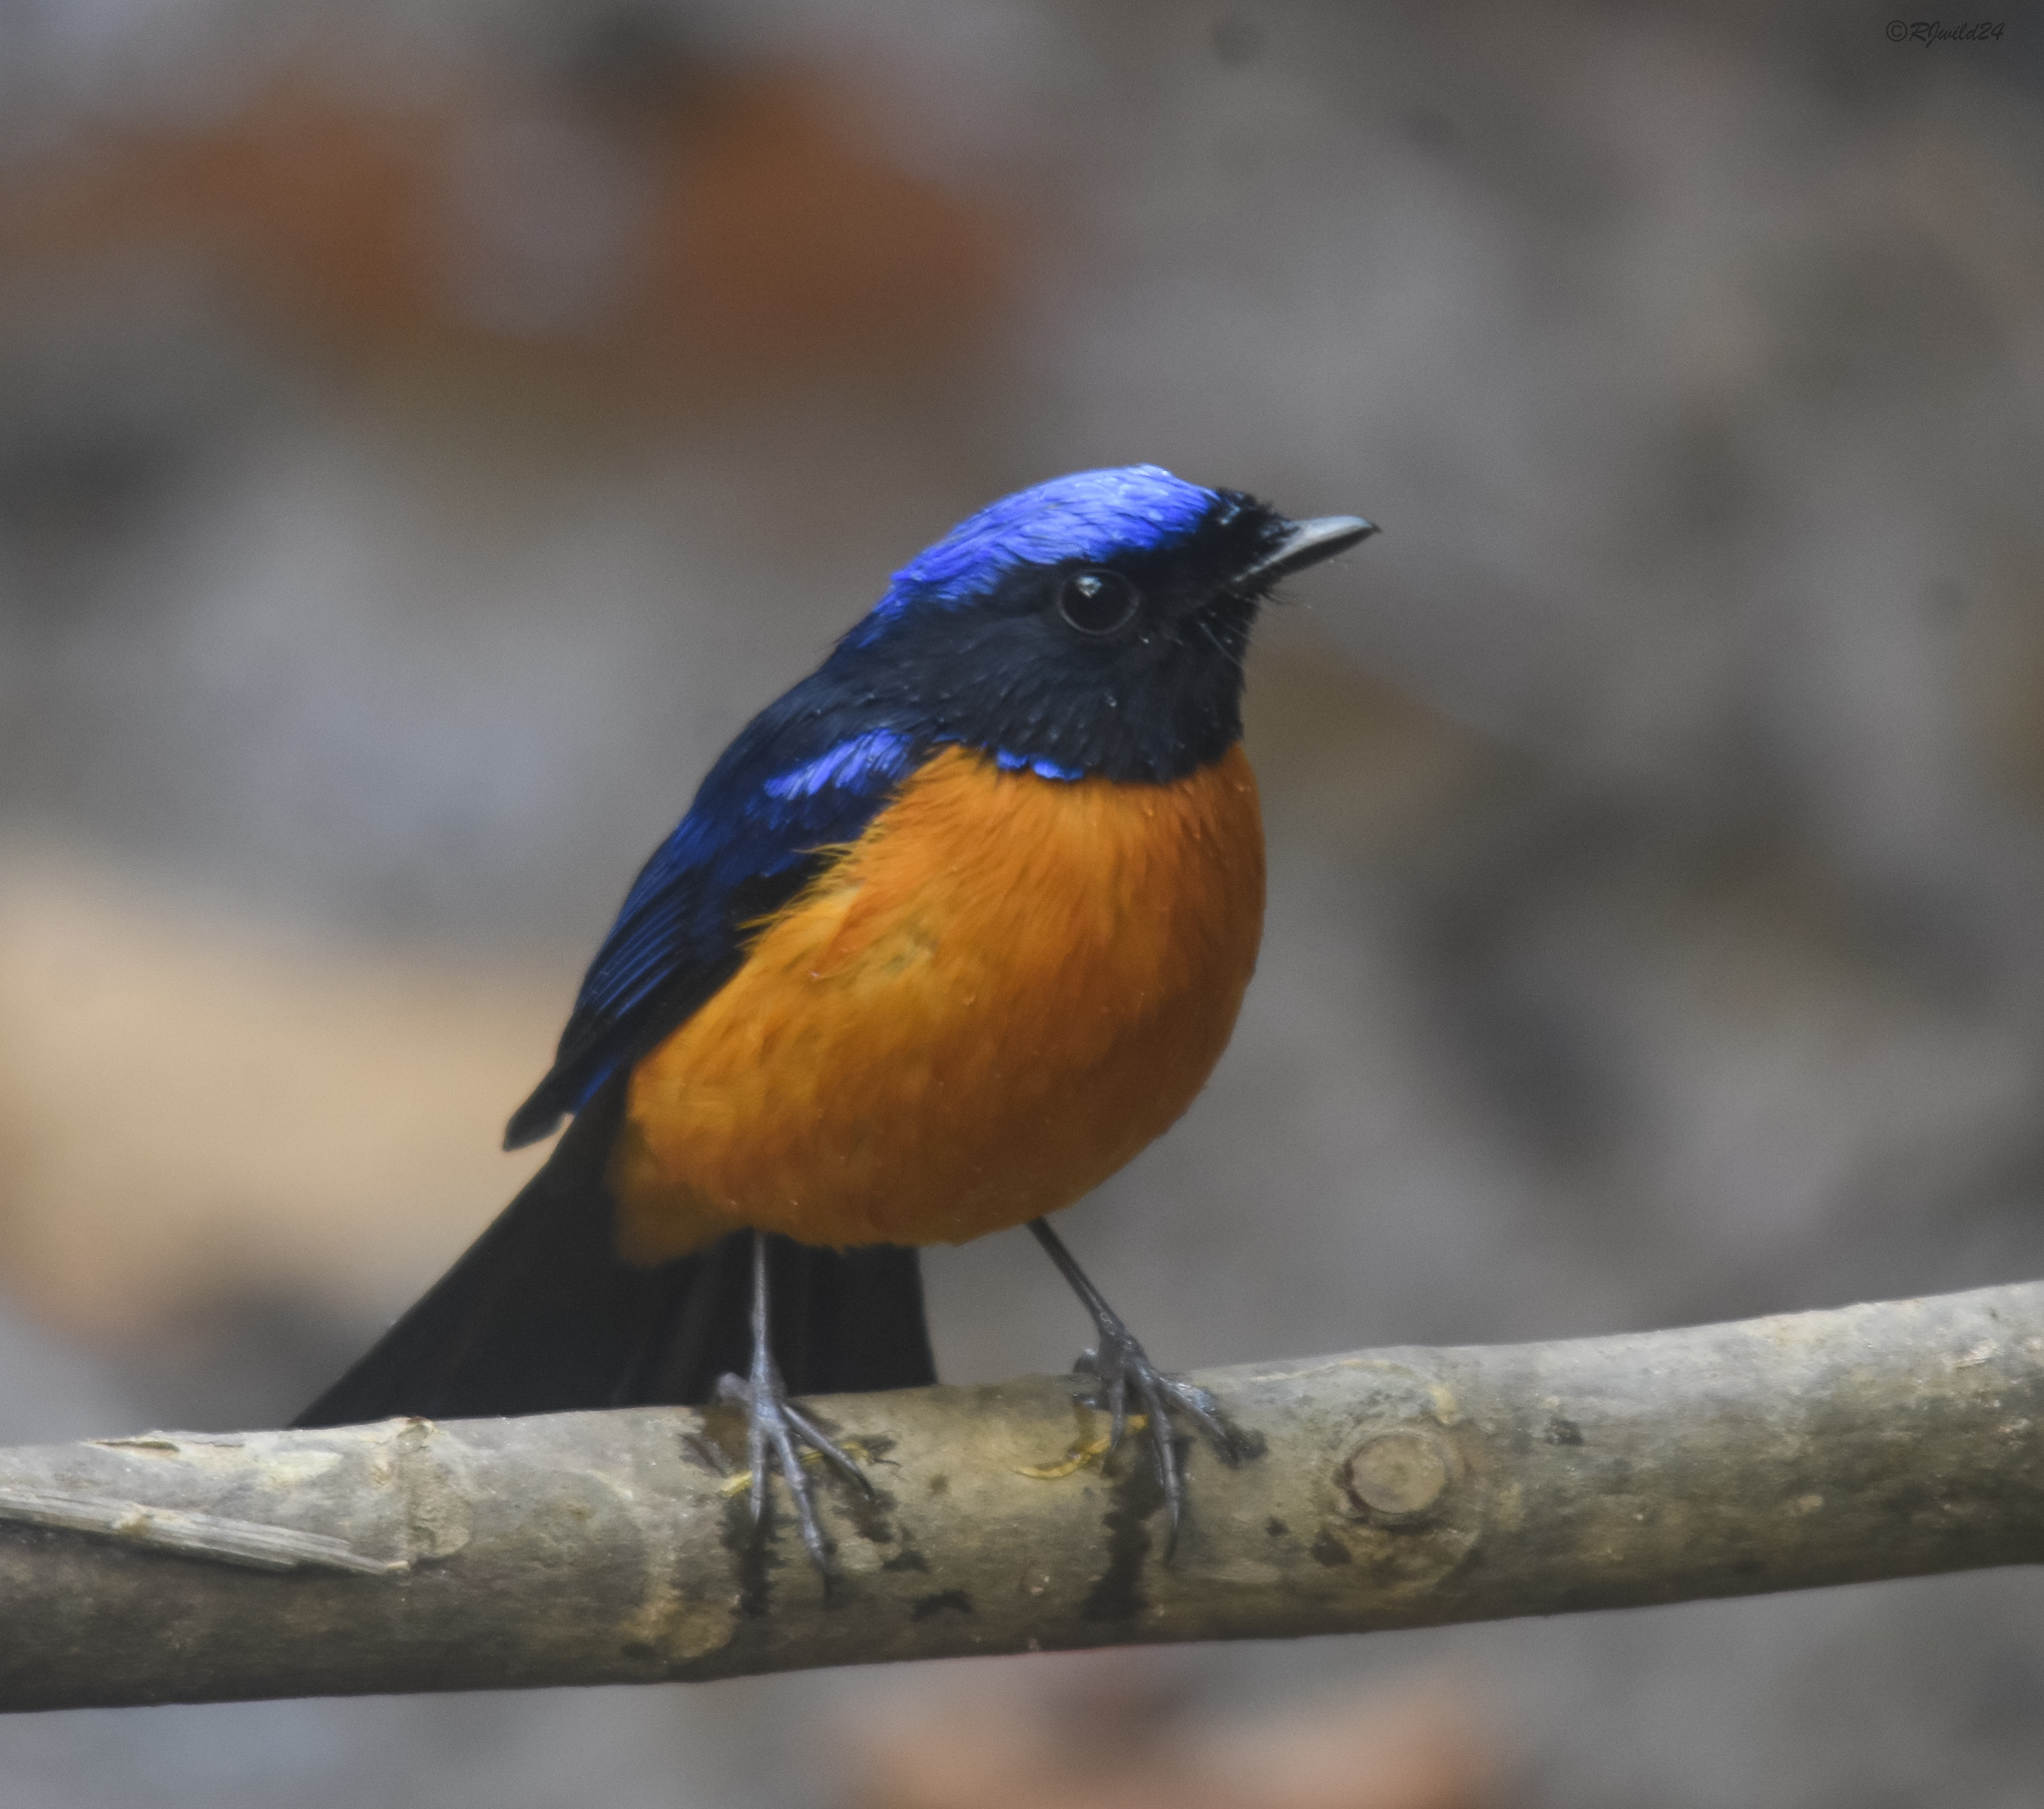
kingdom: Animalia
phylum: Chordata
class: Aves
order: Passeriformes
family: Muscicapidae
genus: Niltava
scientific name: Niltava macgrigoriae
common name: Small niltava
